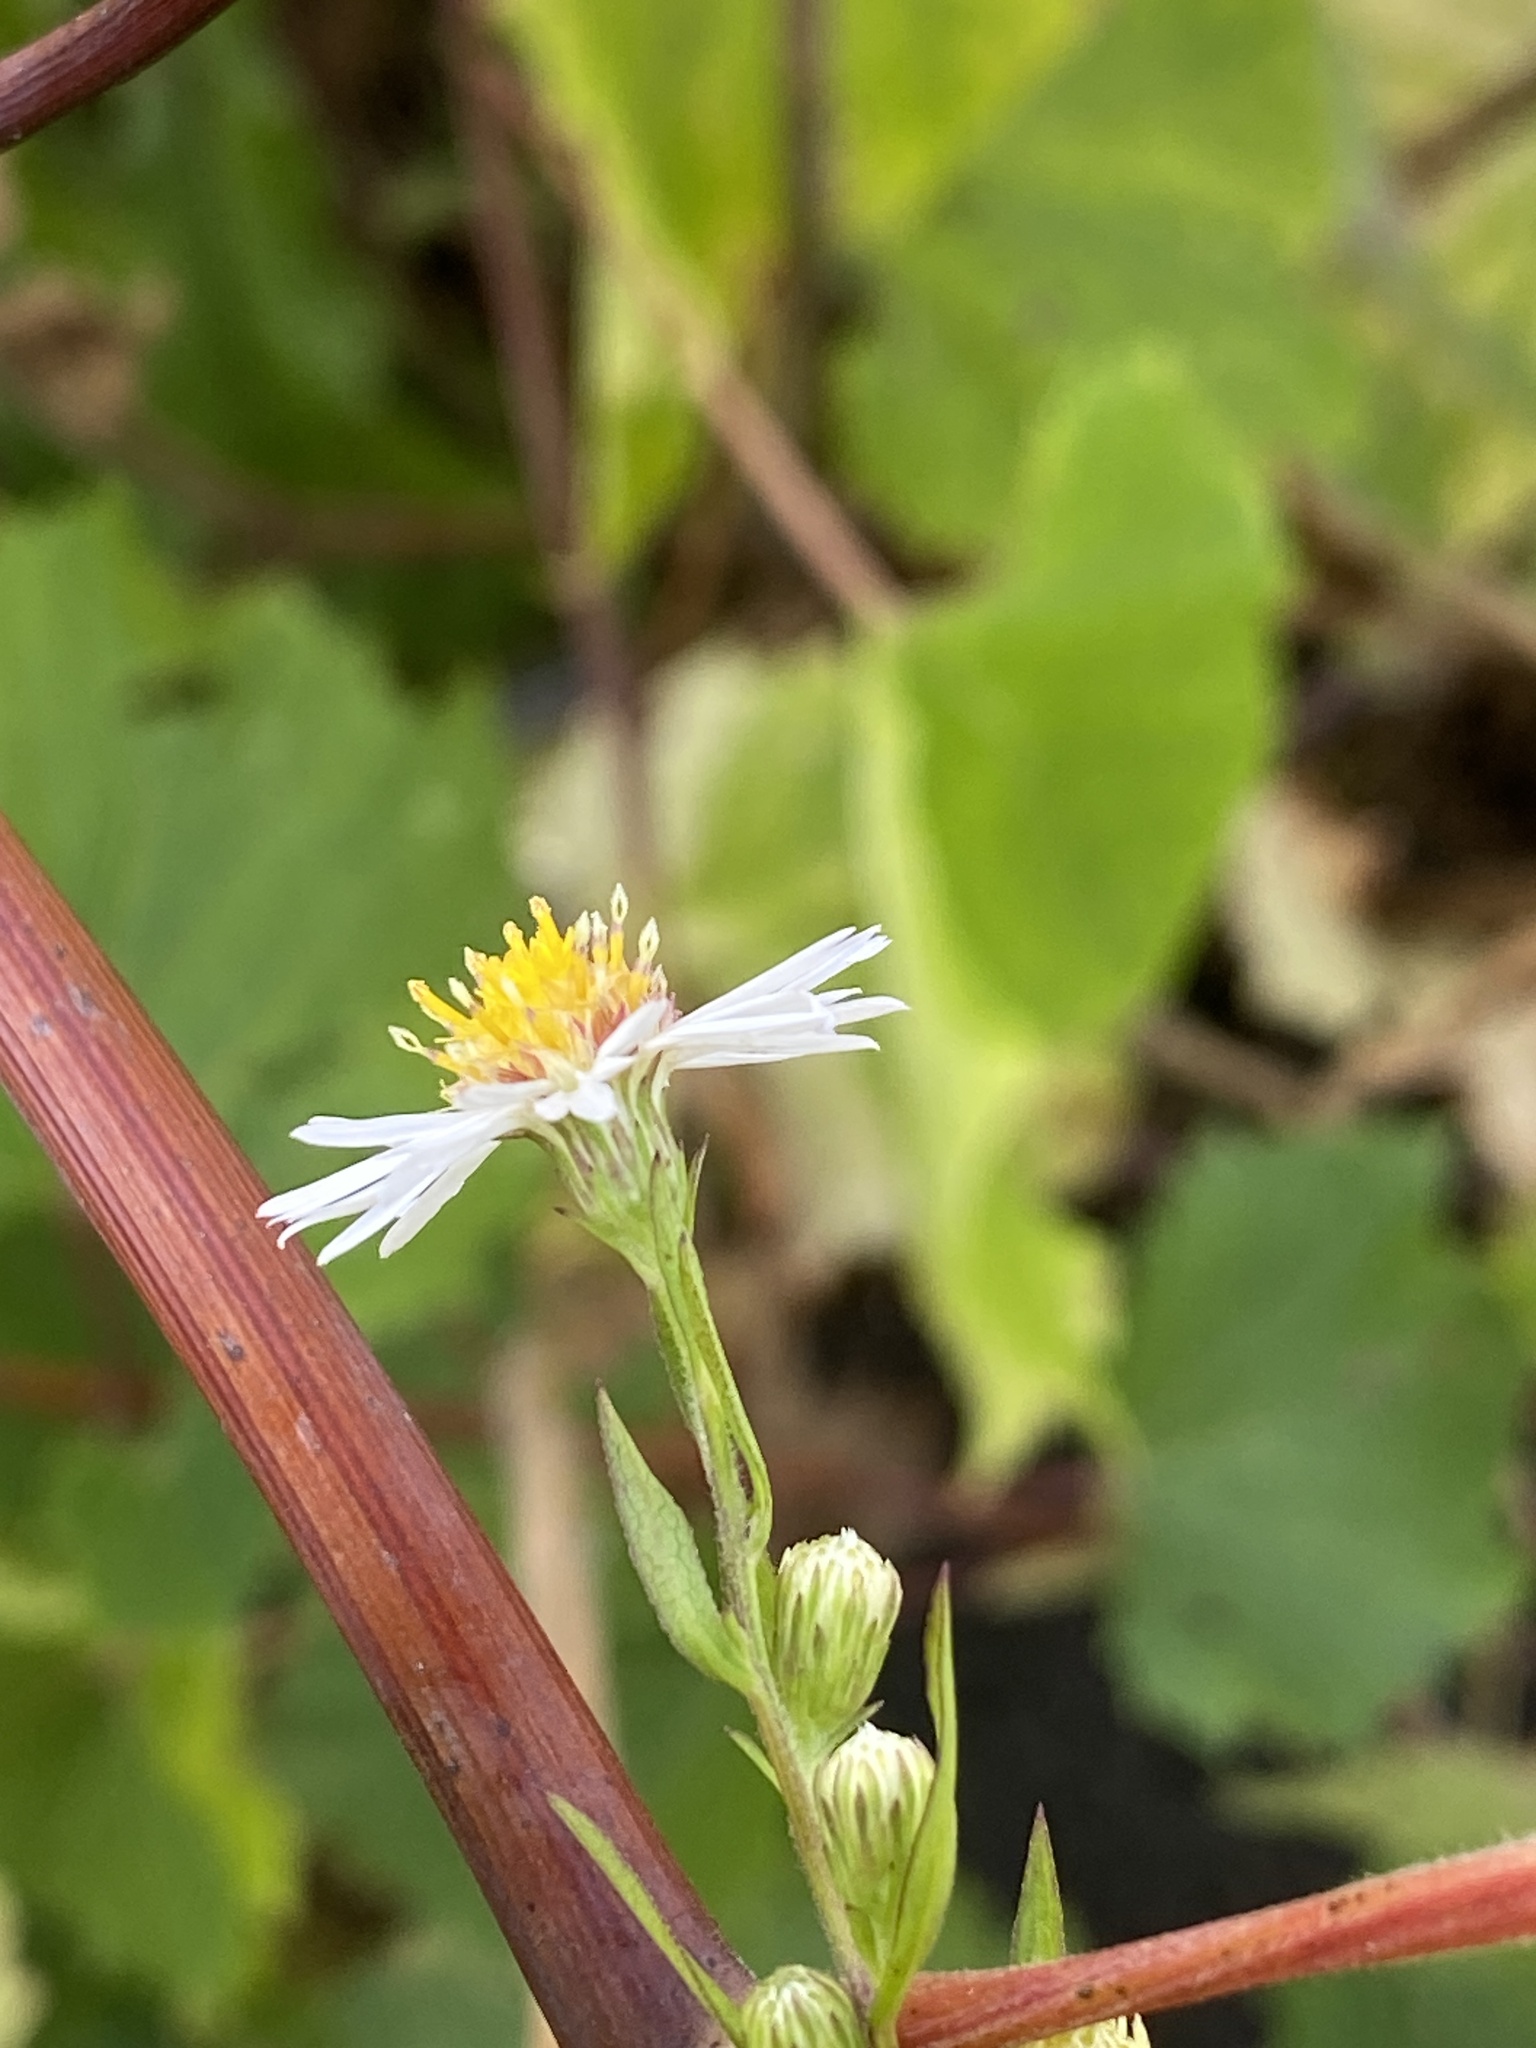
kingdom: Plantae
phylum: Tracheophyta
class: Magnoliopsida
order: Asterales
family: Asteraceae
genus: Symphyotrichum
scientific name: Symphyotrichum lanceolatum
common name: Panicled aster
